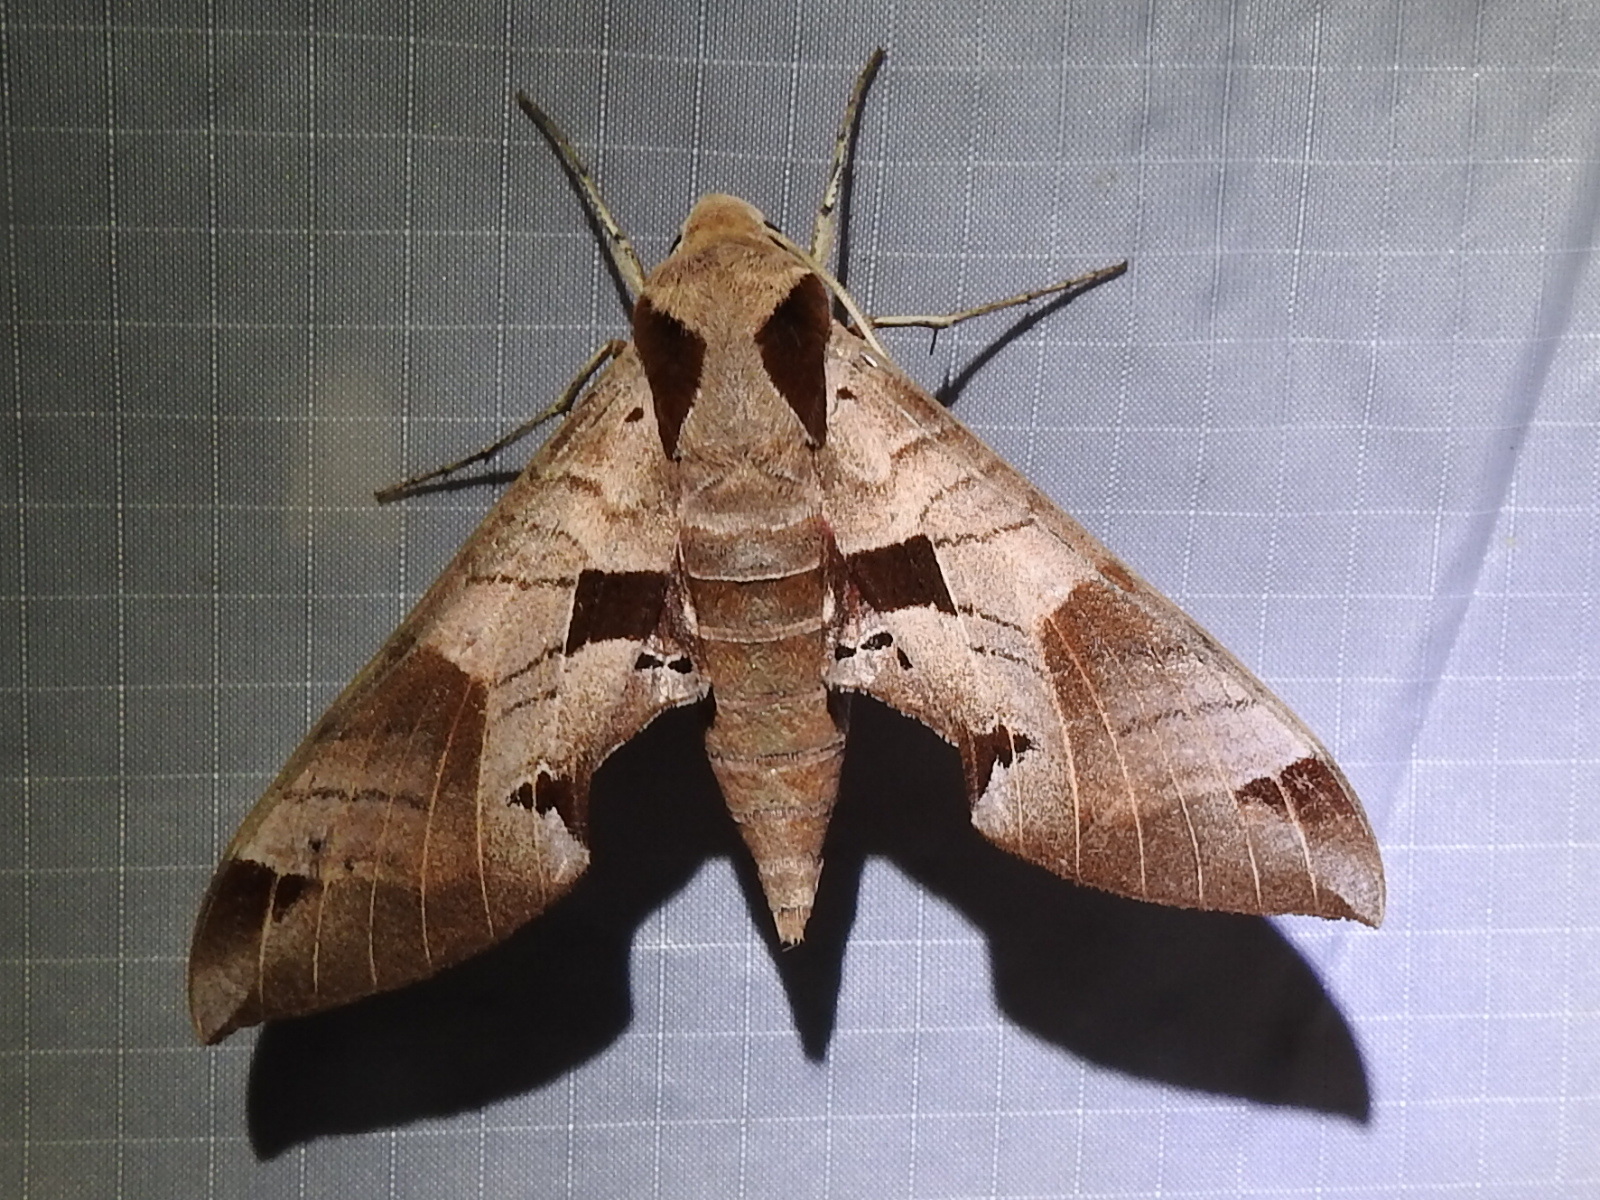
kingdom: Animalia
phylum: Arthropoda
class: Insecta
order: Lepidoptera
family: Sphingidae
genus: Eumorpha
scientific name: Eumorpha achemon
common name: Achemon sphinx
